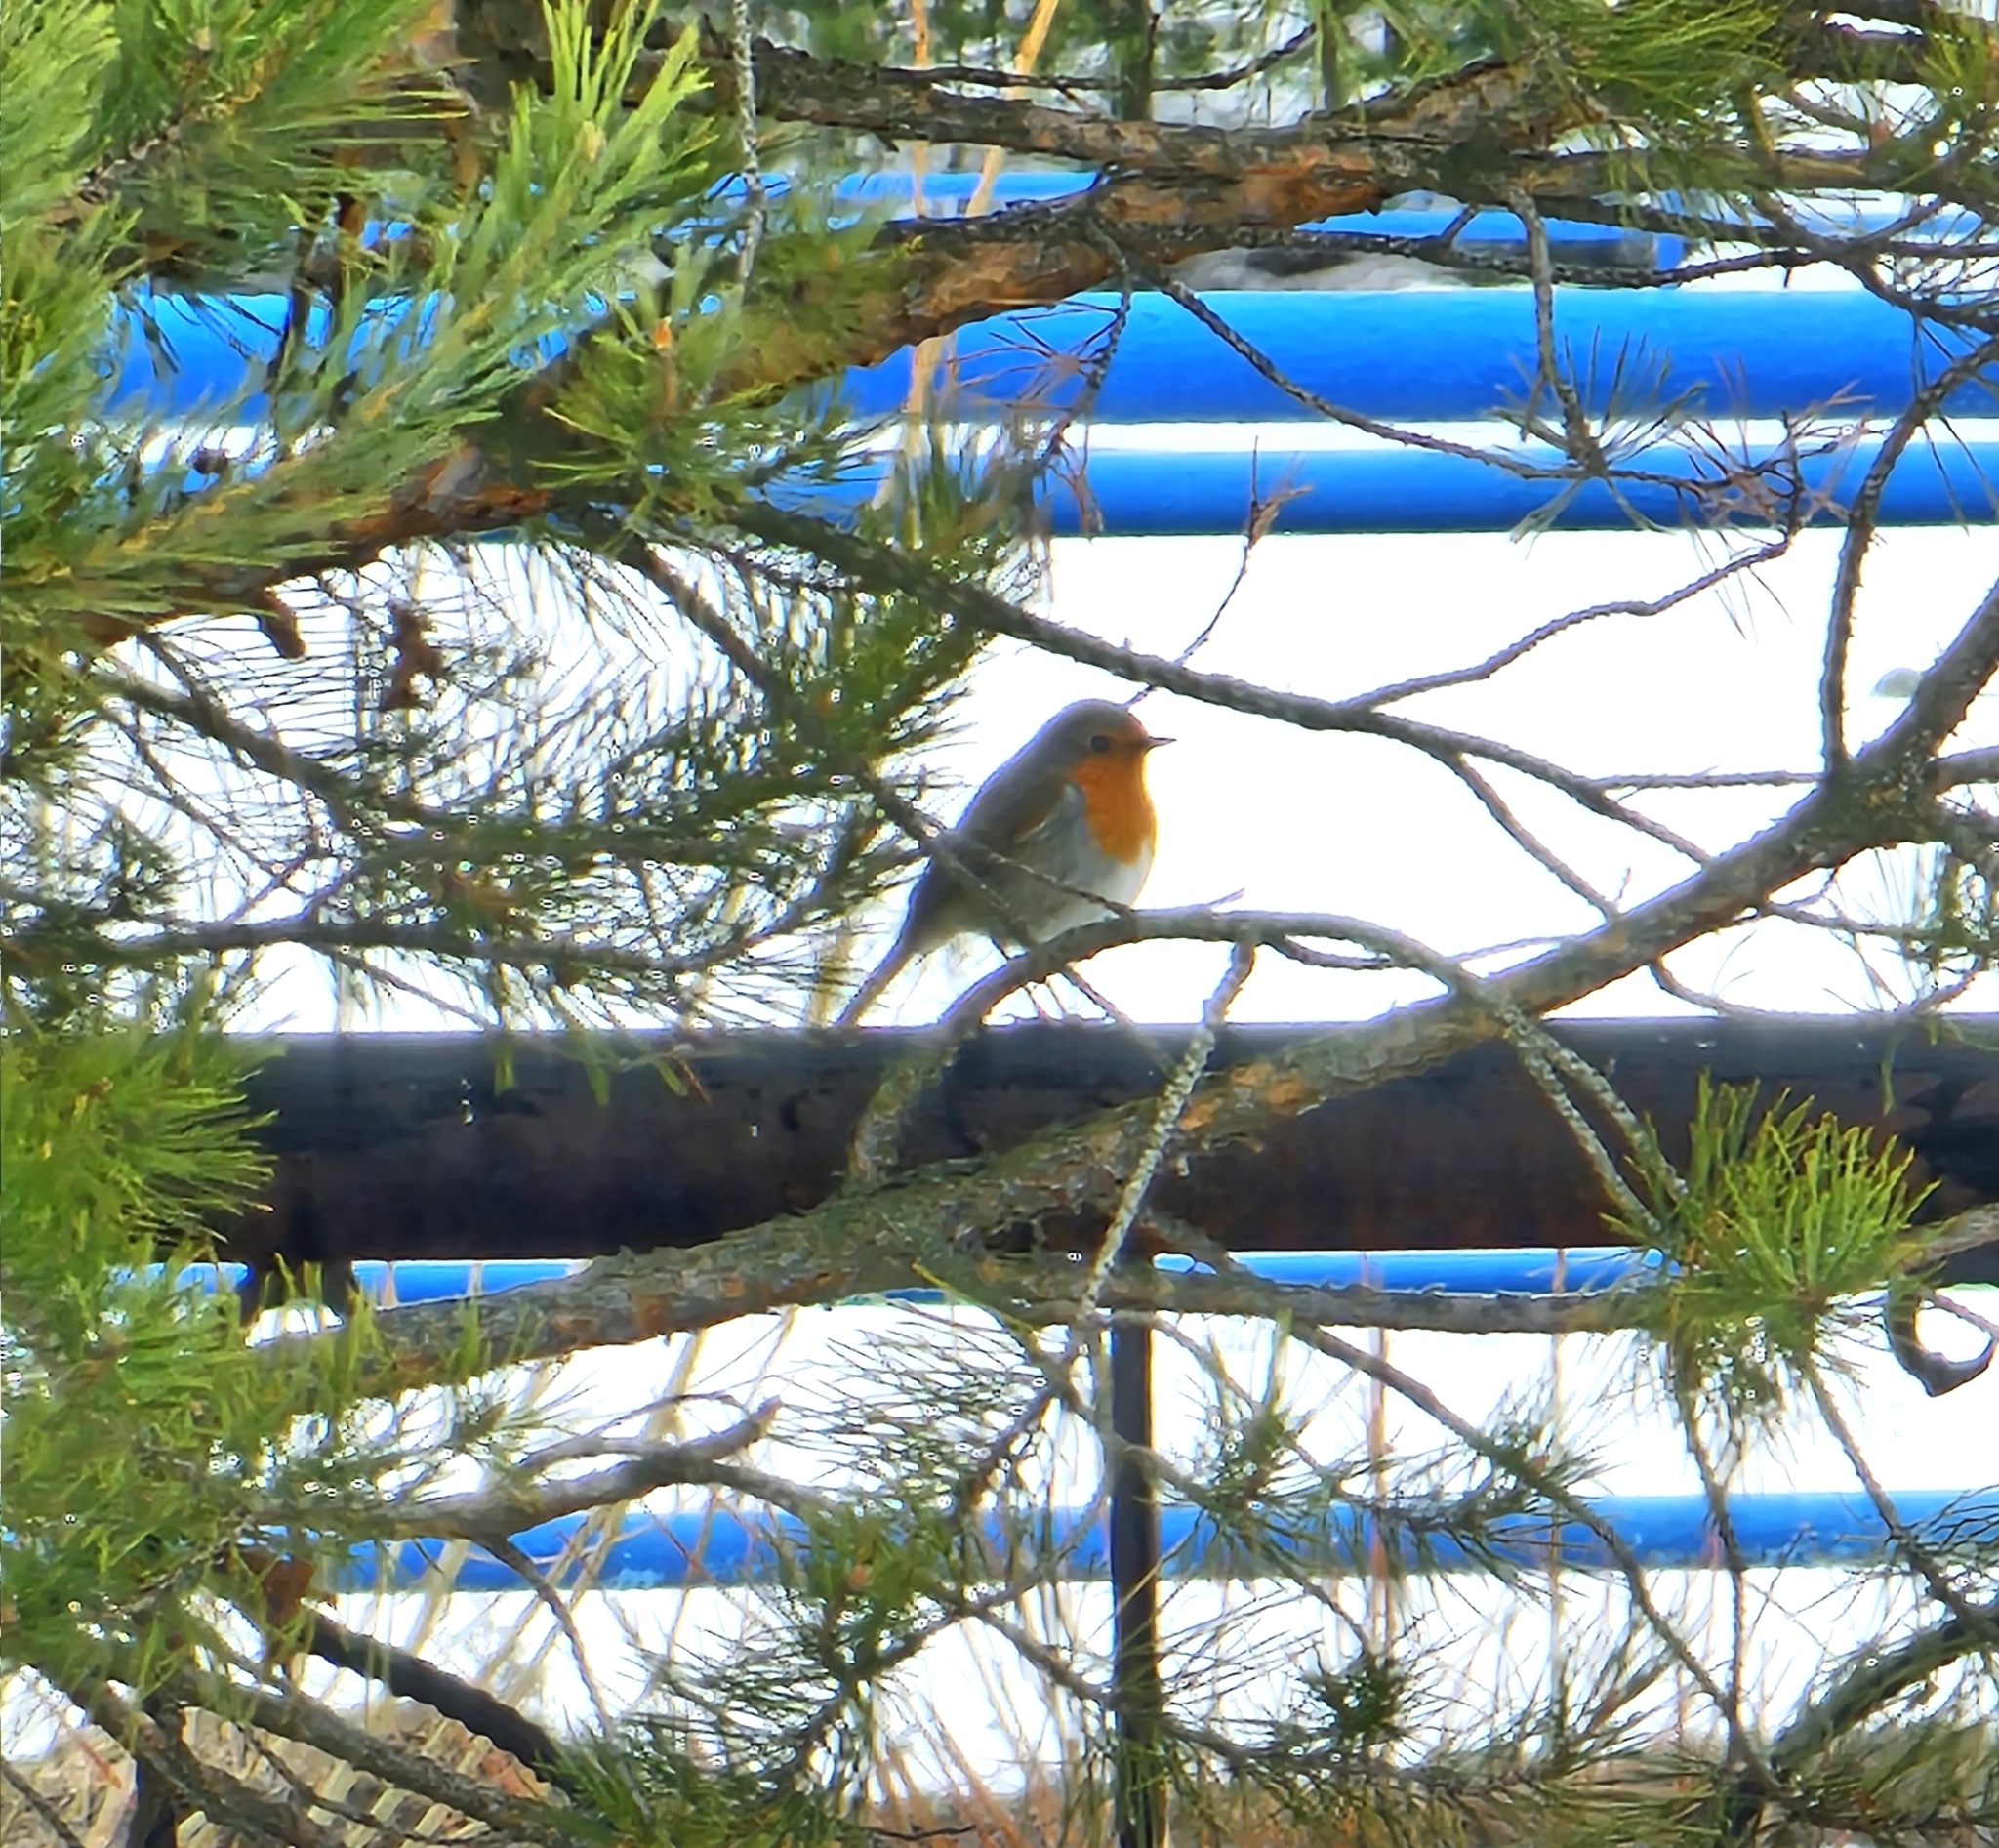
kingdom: Animalia
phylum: Chordata
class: Aves
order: Passeriformes
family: Muscicapidae
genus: Erithacus
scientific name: Erithacus rubecula
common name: European robin
